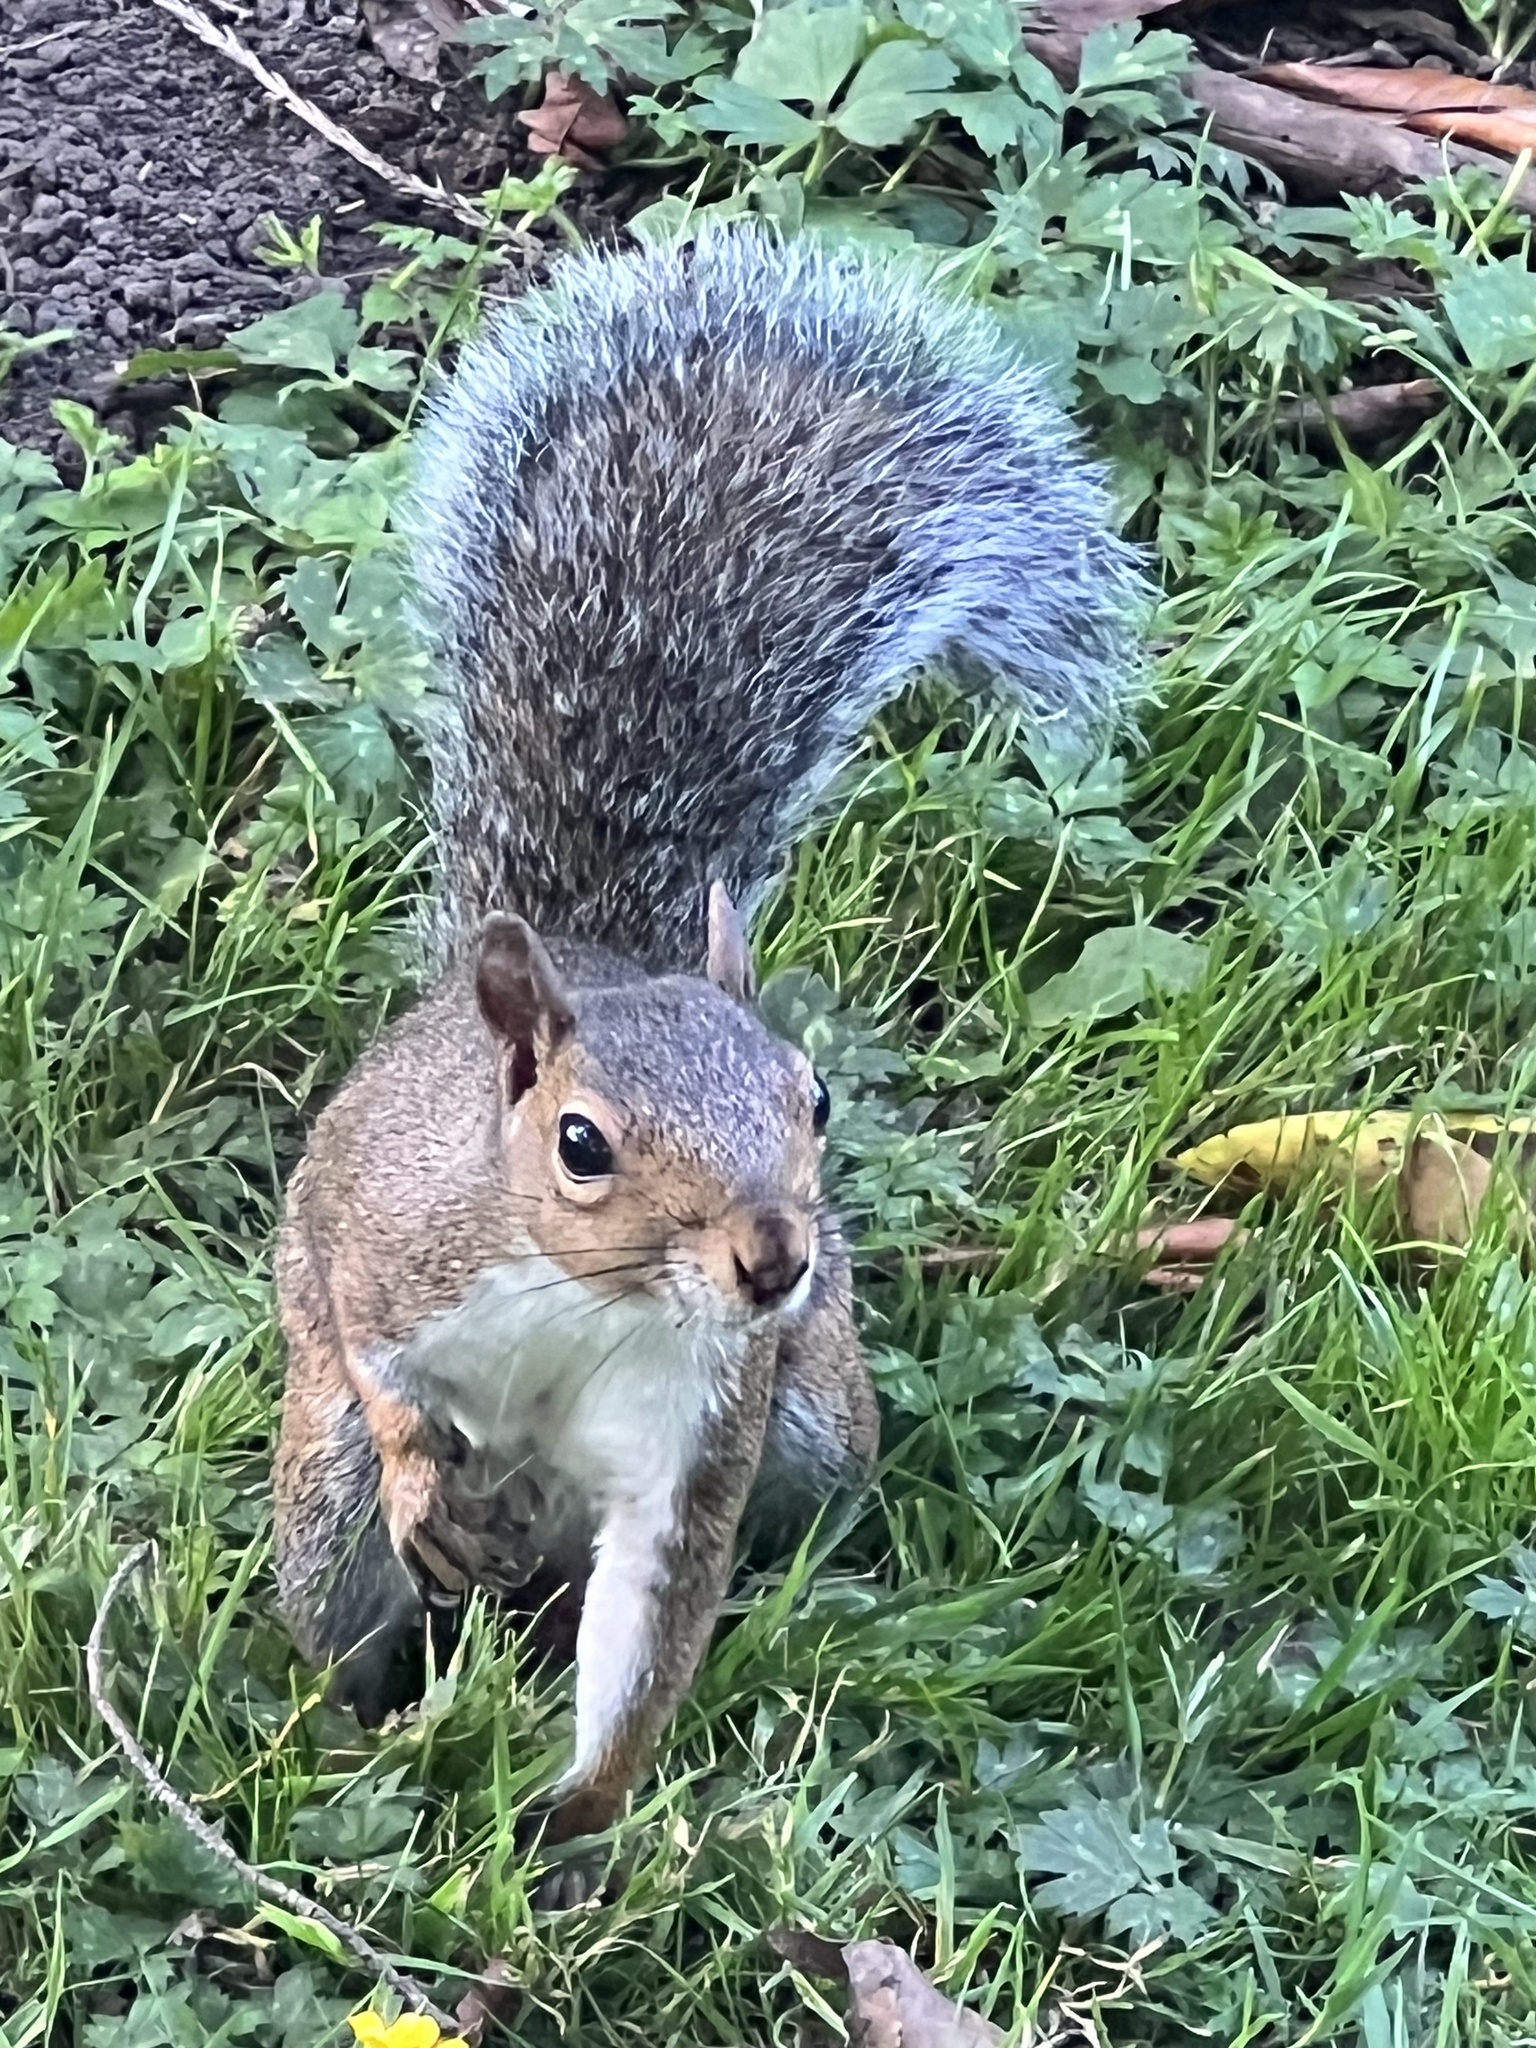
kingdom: Animalia
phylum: Chordata
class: Mammalia
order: Rodentia
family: Sciuridae
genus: Sciurus
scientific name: Sciurus carolinensis
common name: Eastern gray squirrel
